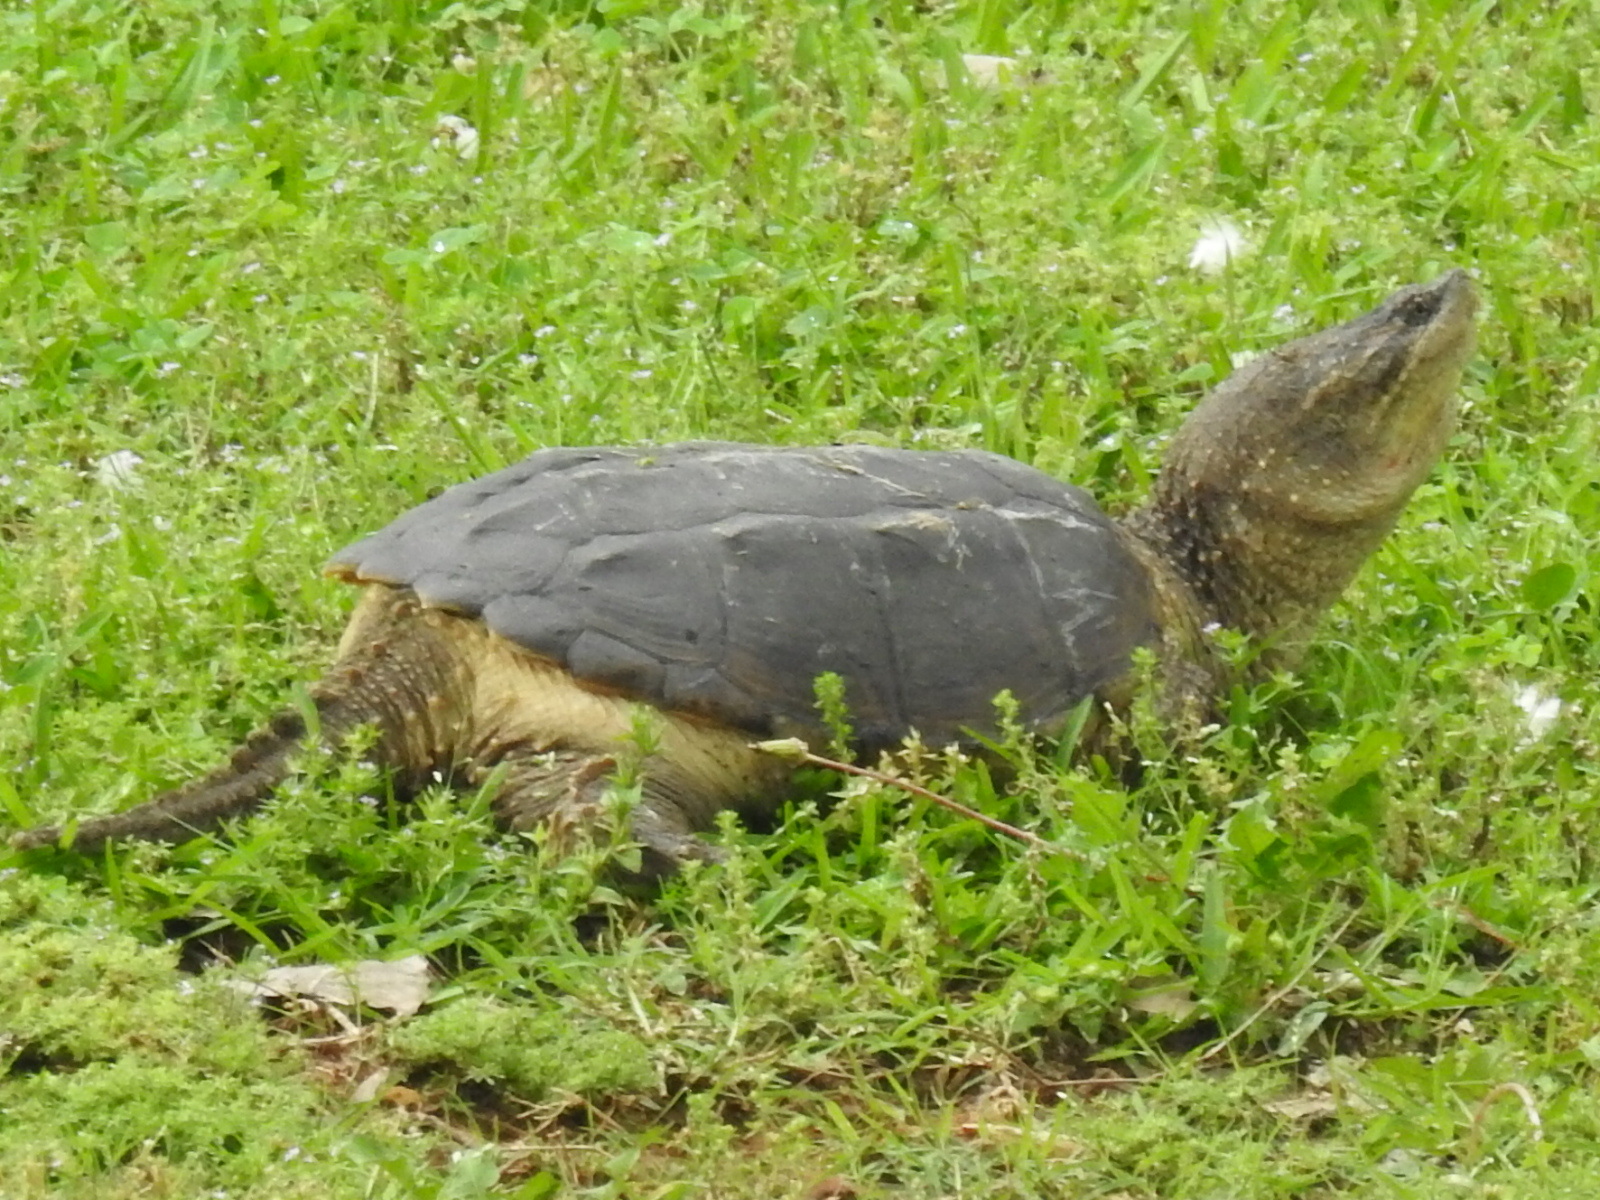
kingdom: Animalia
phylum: Chordata
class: Testudines
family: Chelydridae
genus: Chelydra
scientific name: Chelydra serpentina
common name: Common snapping turtle
